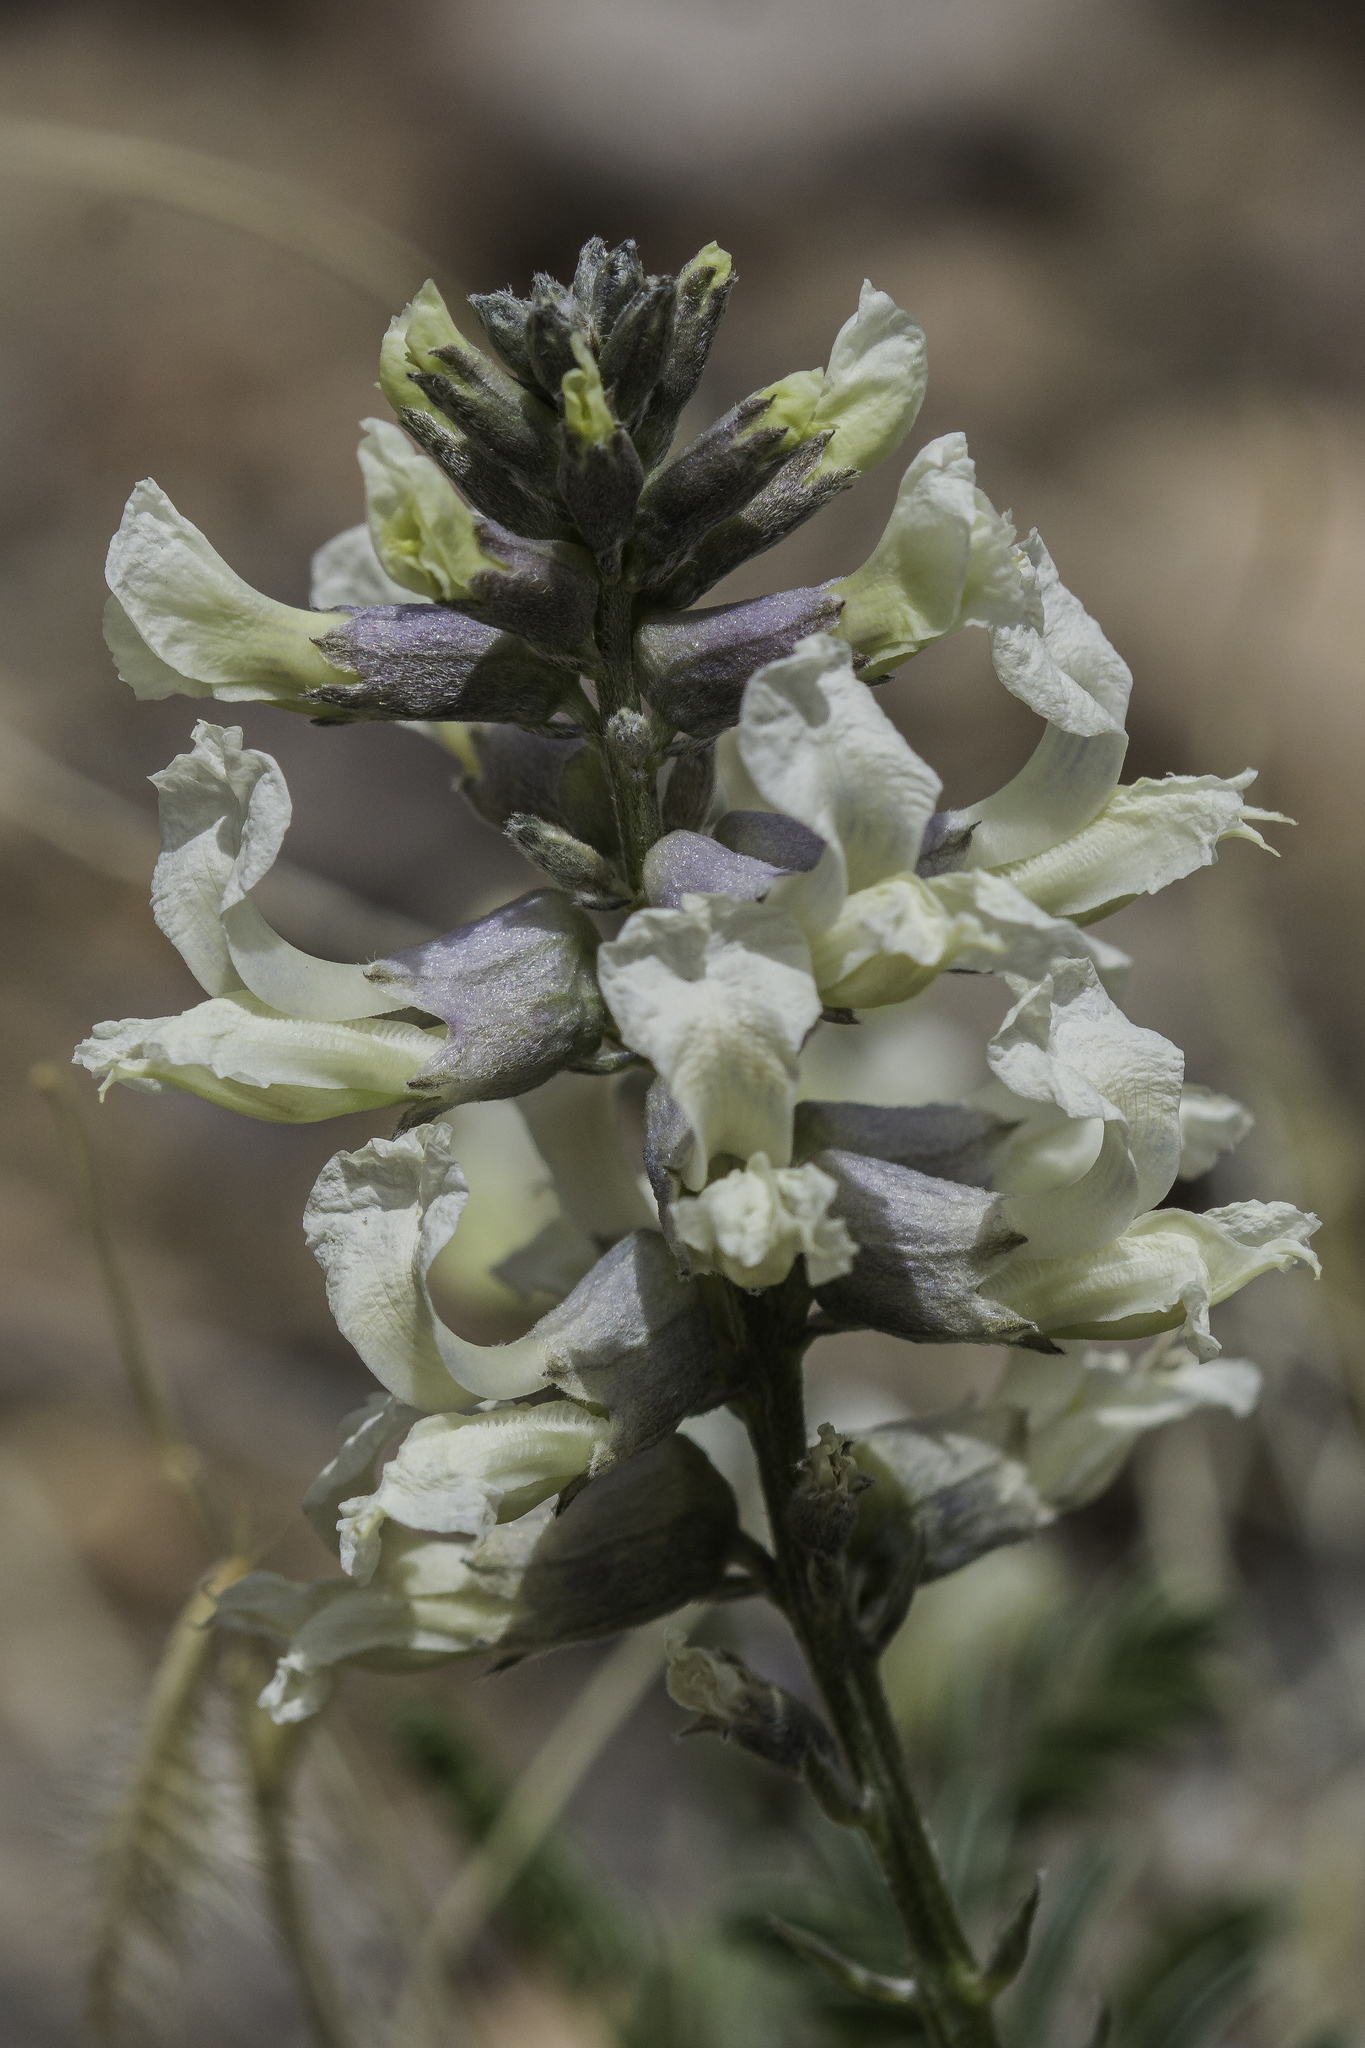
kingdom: Plantae
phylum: Tracheophyta
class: Magnoliopsida
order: Fabales
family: Fabaceae
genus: Sophora
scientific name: Sophora nuttalliana
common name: Silky sophora
